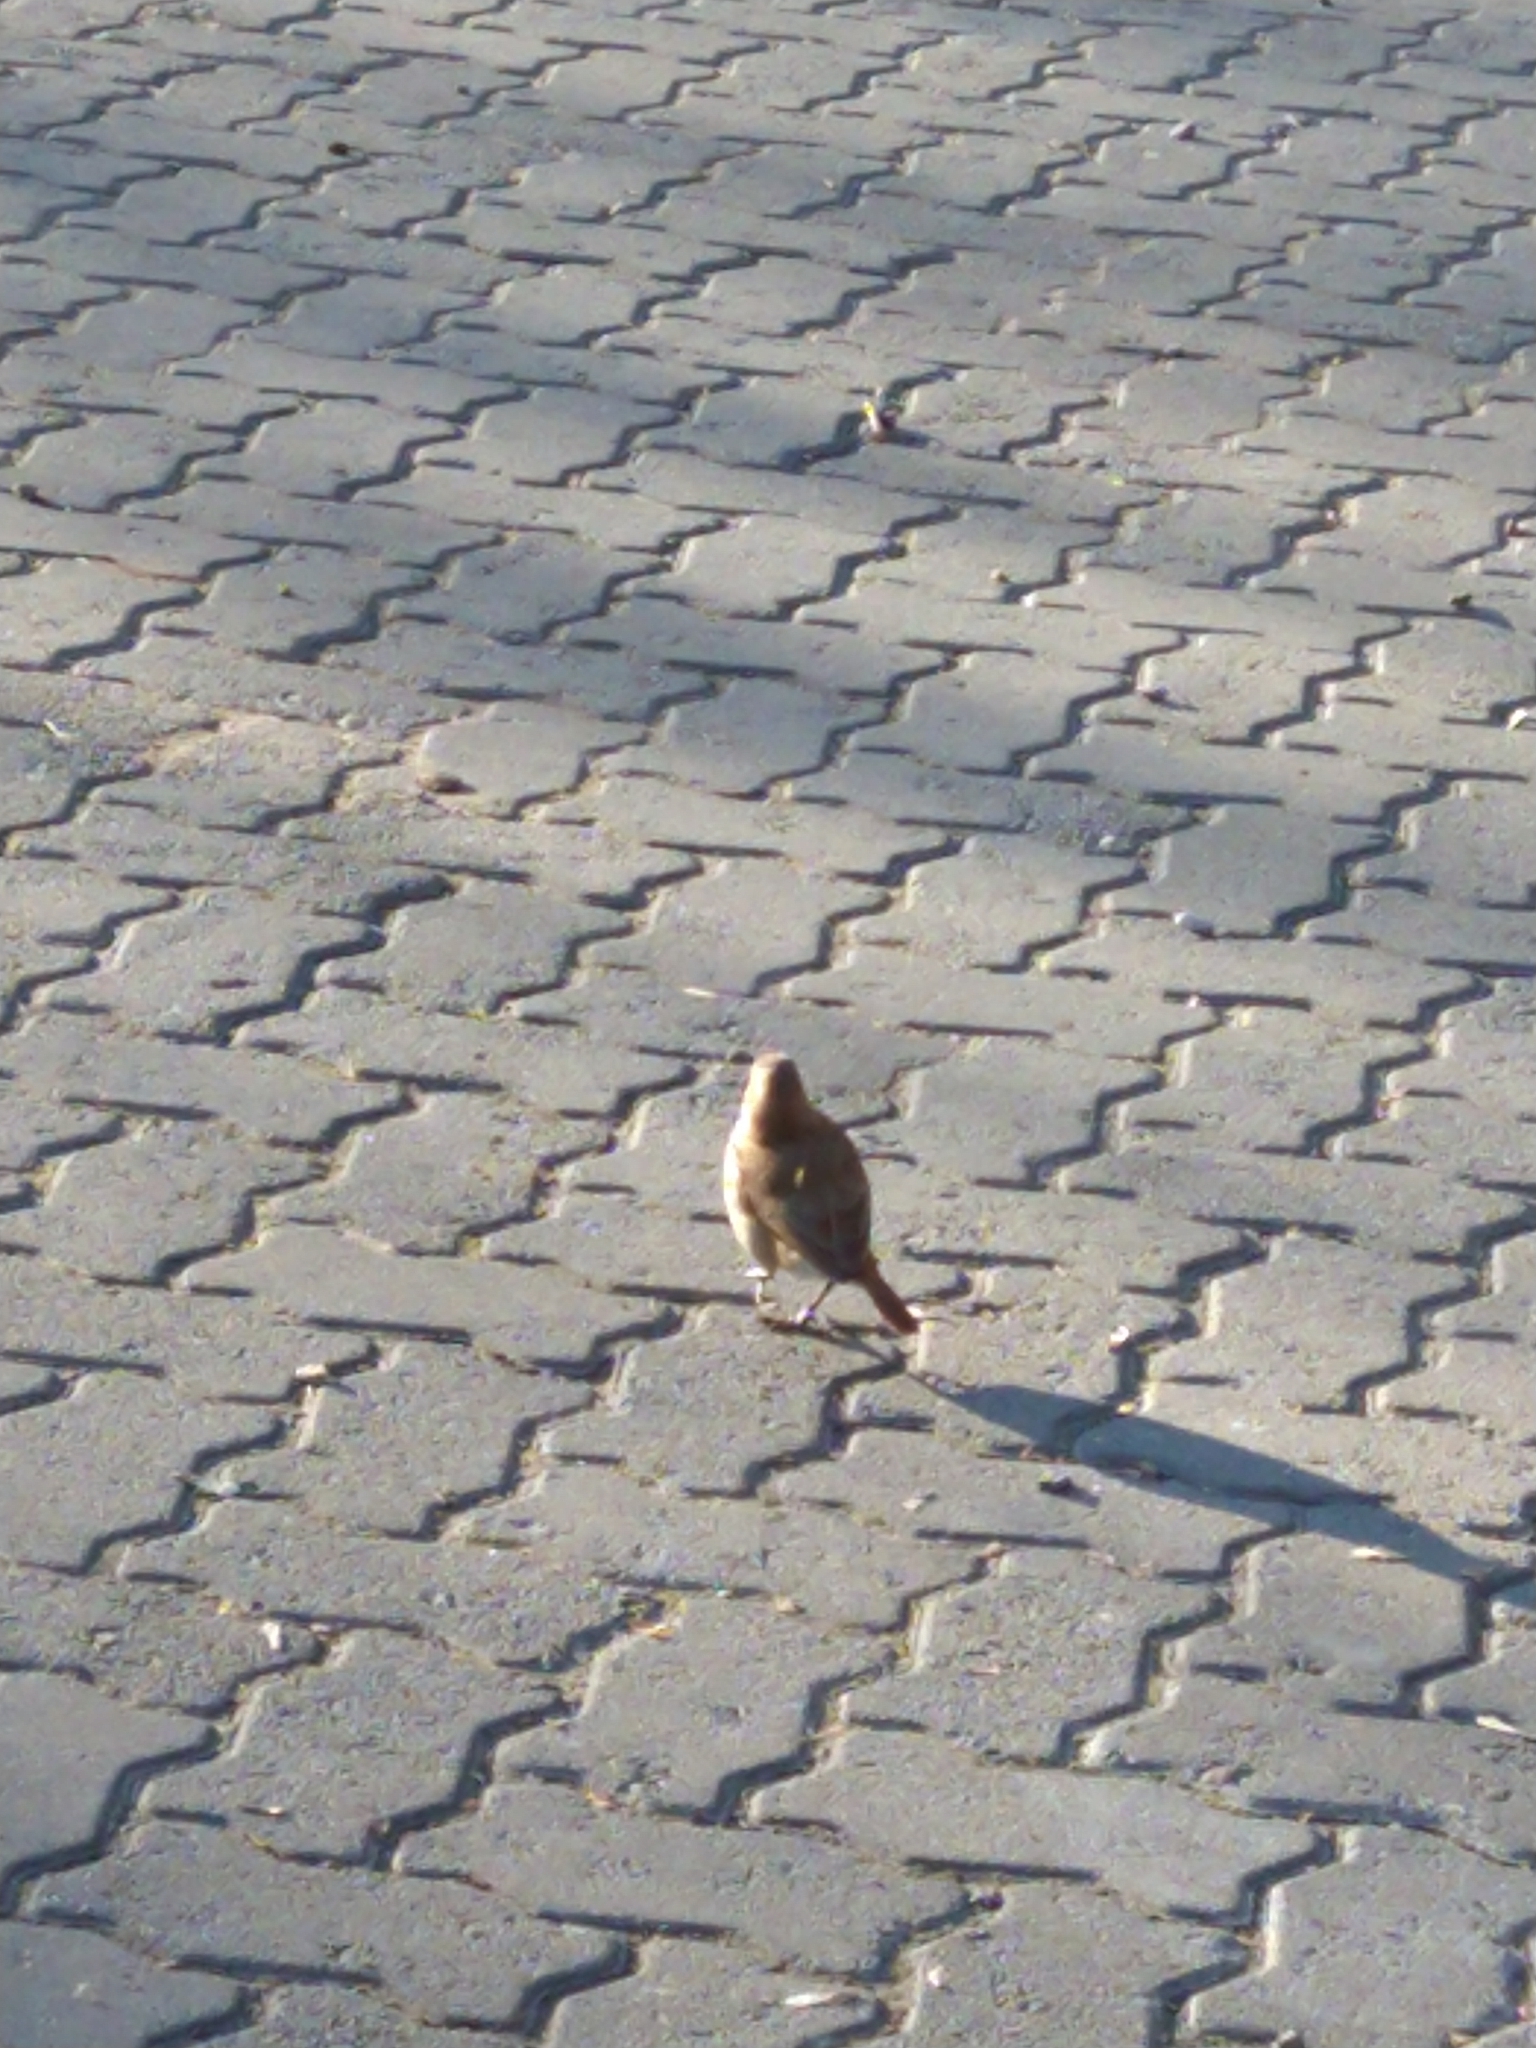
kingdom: Animalia
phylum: Chordata
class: Aves
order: Passeriformes
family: Furnariidae
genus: Furnarius
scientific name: Furnarius rufus
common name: Rufous hornero
